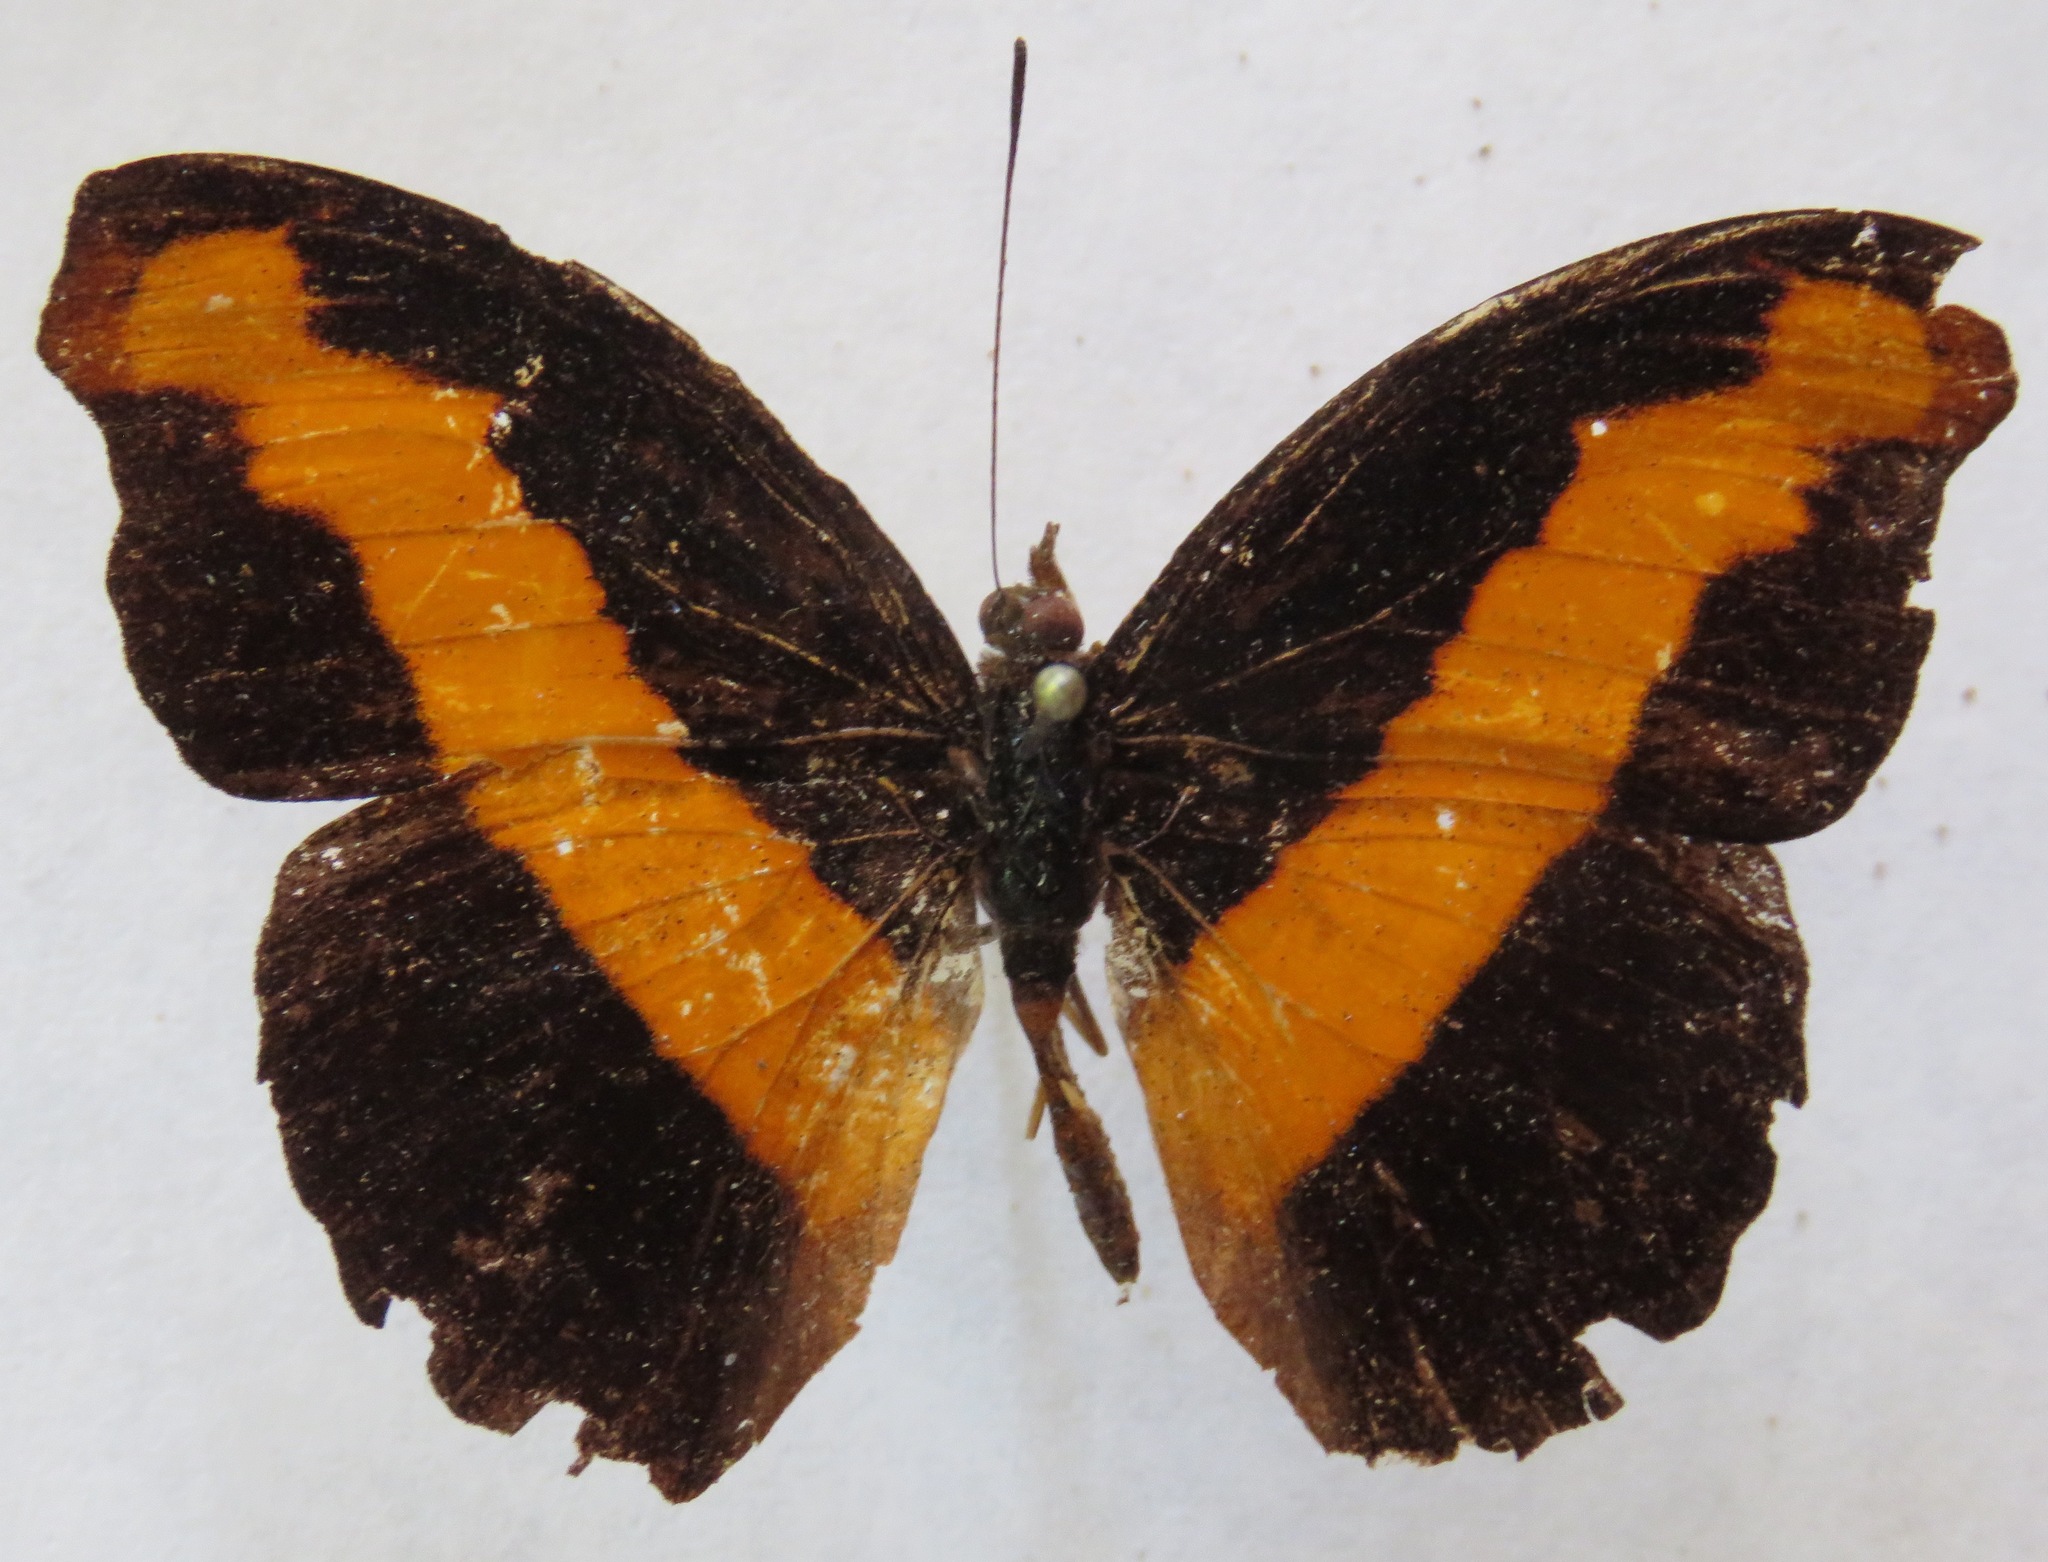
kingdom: Animalia
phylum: Arthropoda
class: Insecta
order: Lepidoptera
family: Nymphalidae
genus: Catonephele
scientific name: Catonephele mexicana
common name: Guatemalan catone
